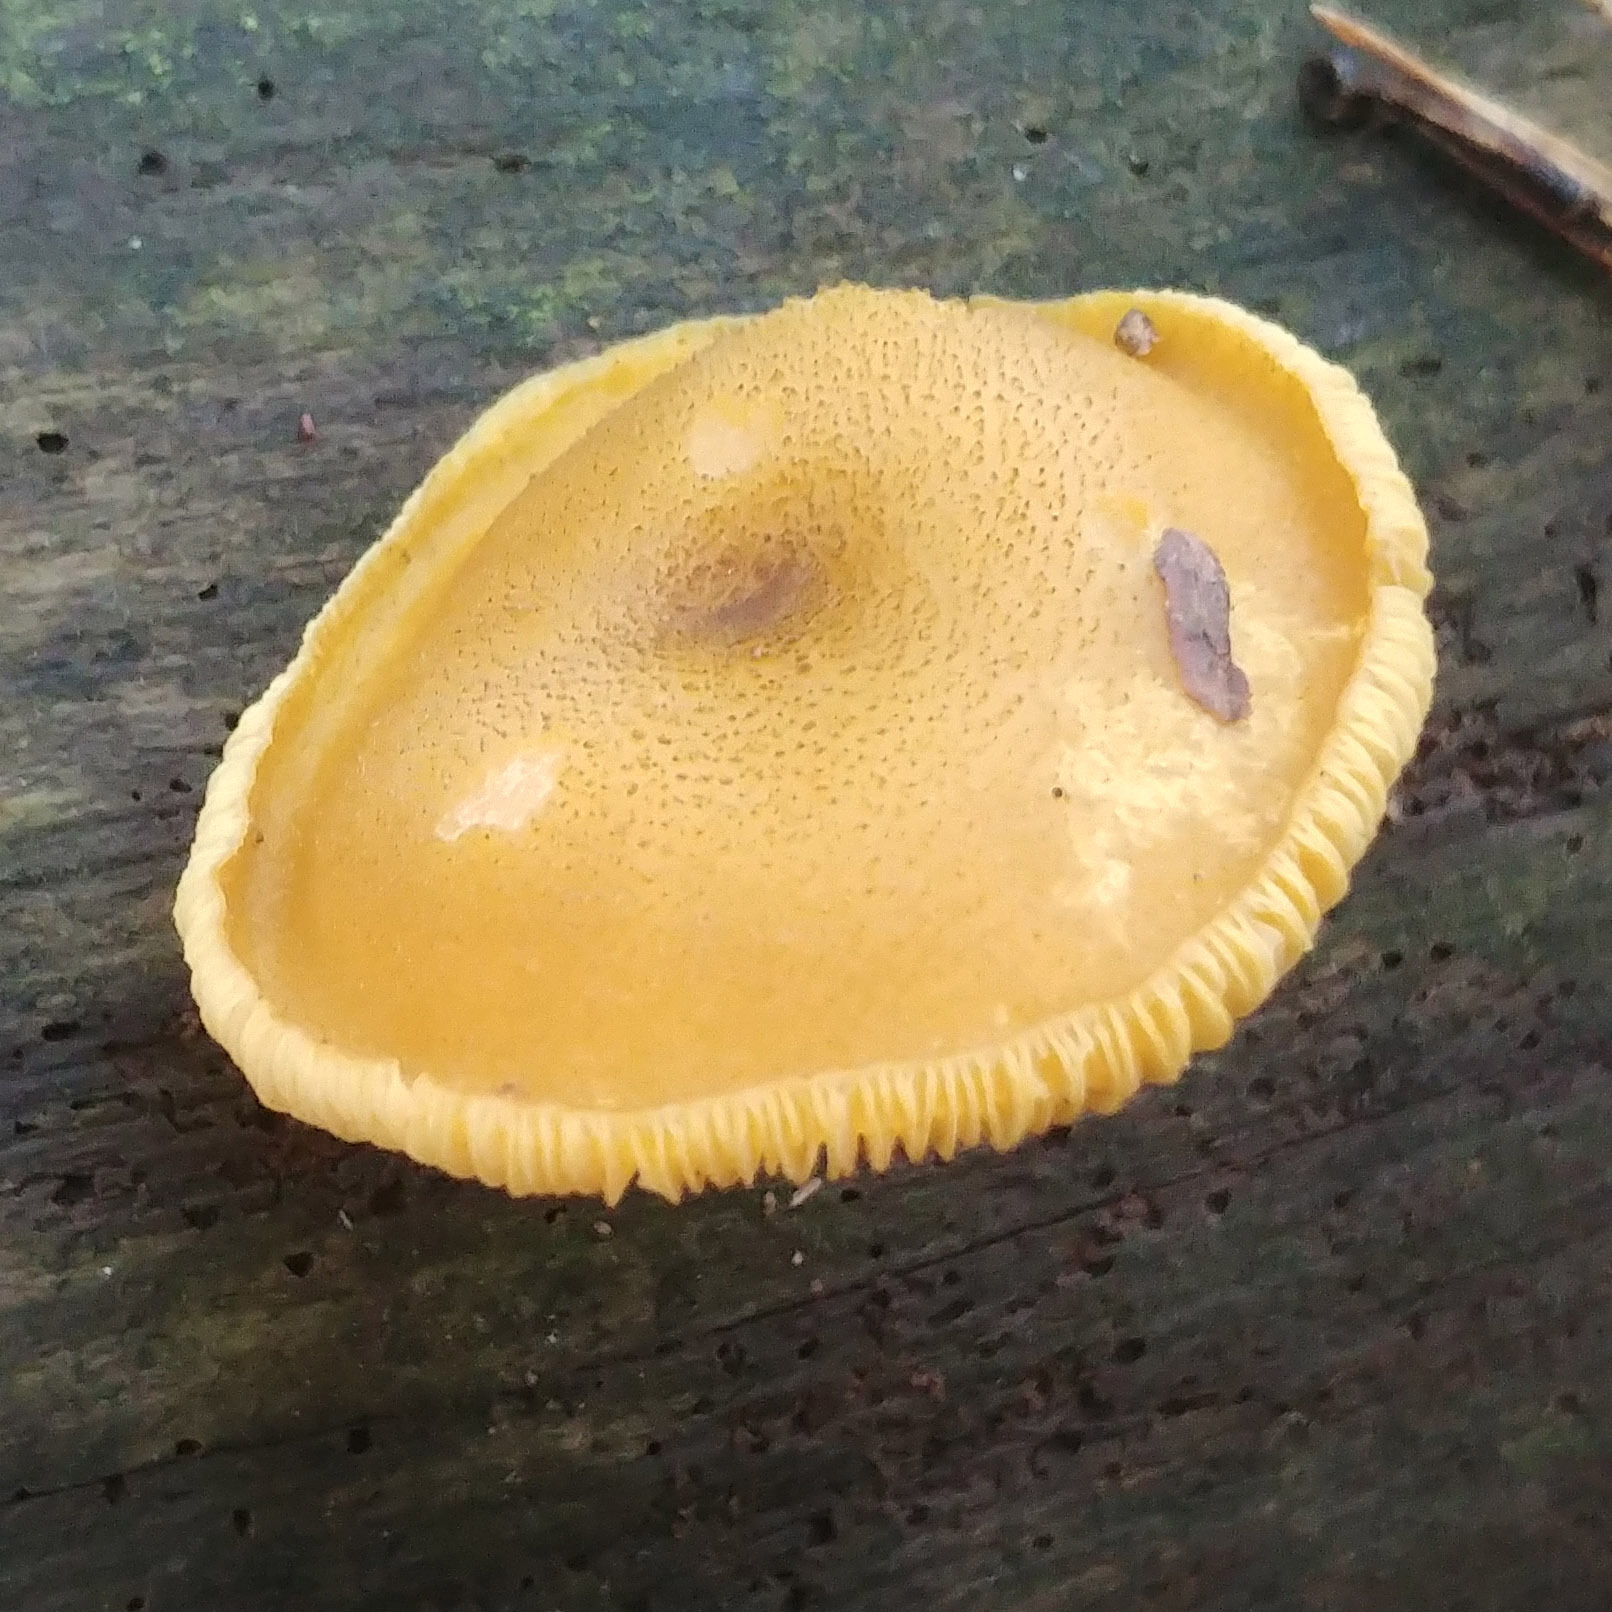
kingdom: Fungi
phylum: Basidiomycota
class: Agaricomycetes
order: Agaricales
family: Tricholomataceae
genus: Tricholomopsis
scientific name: Tricholomopsis decora
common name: Prunes and custard
